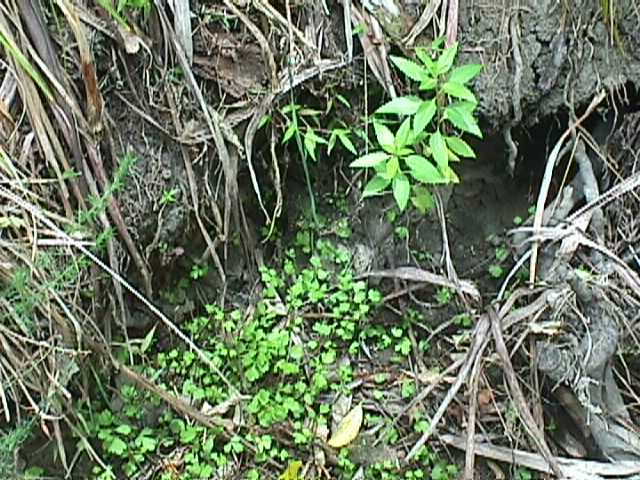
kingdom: Plantae
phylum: Tracheophyta
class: Magnoliopsida
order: Apiales
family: Apiaceae
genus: Apium
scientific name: Apium prostratum
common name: Prostrate marshwort
